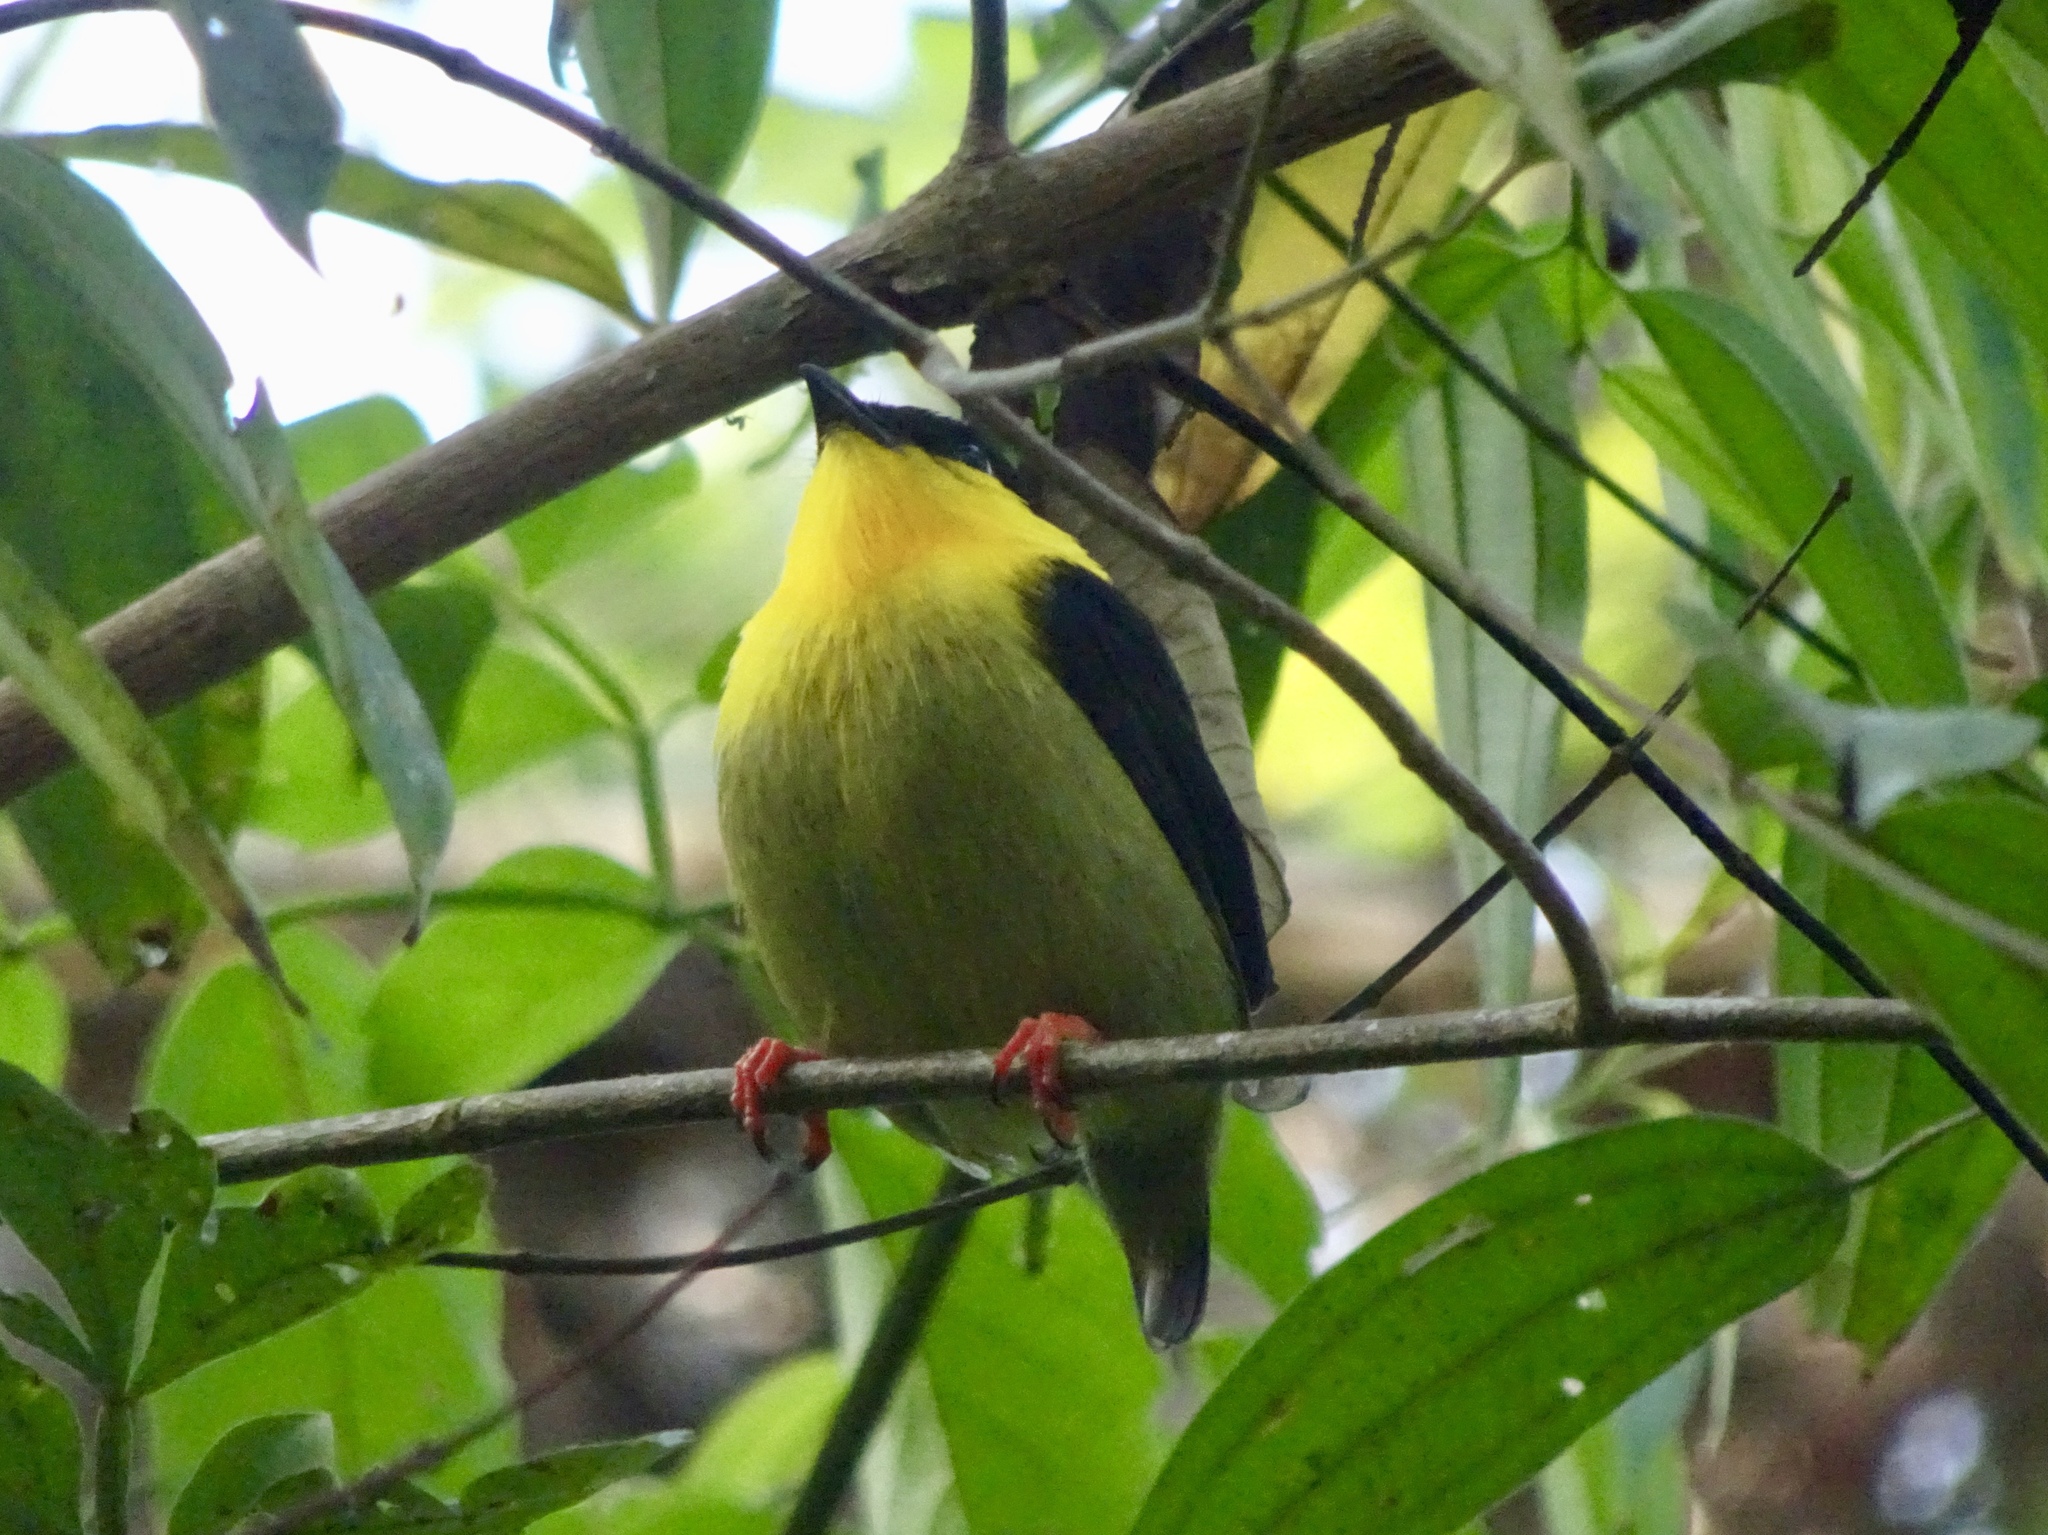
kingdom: Animalia
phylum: Chordata
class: Aves
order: Passeriformes
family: Pipridae
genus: Manacus
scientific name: Manacus vitellinus
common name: Golden-collared manakin
